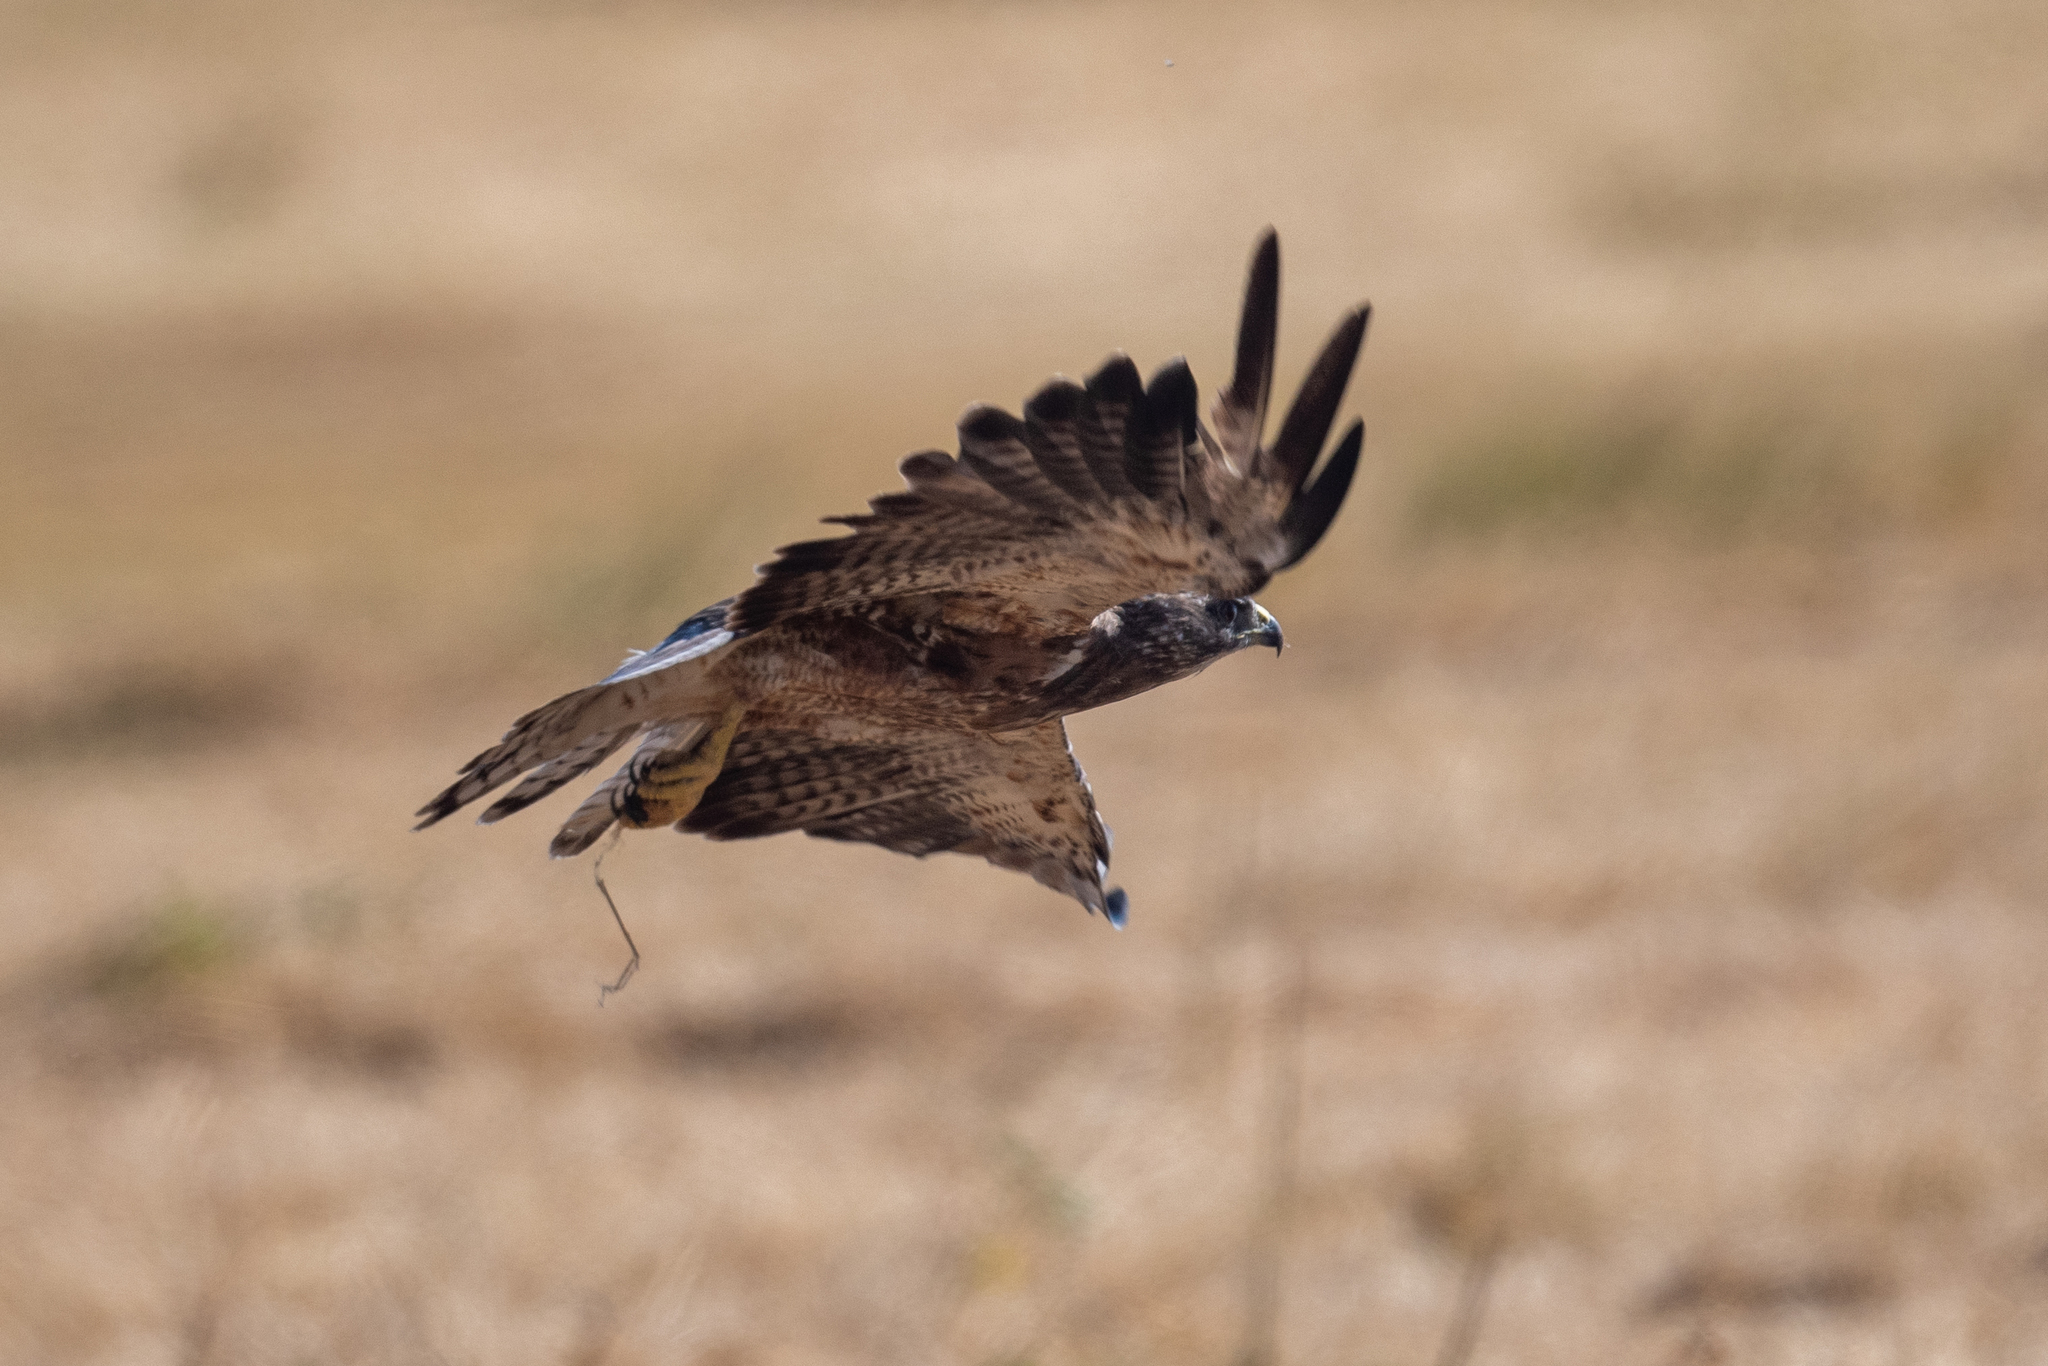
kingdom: Animalia
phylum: Chordata
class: Aves
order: Accipitriformes
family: Accipitridae
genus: Buteo
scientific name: Buteo swainsoni
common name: Swainson's hawk
